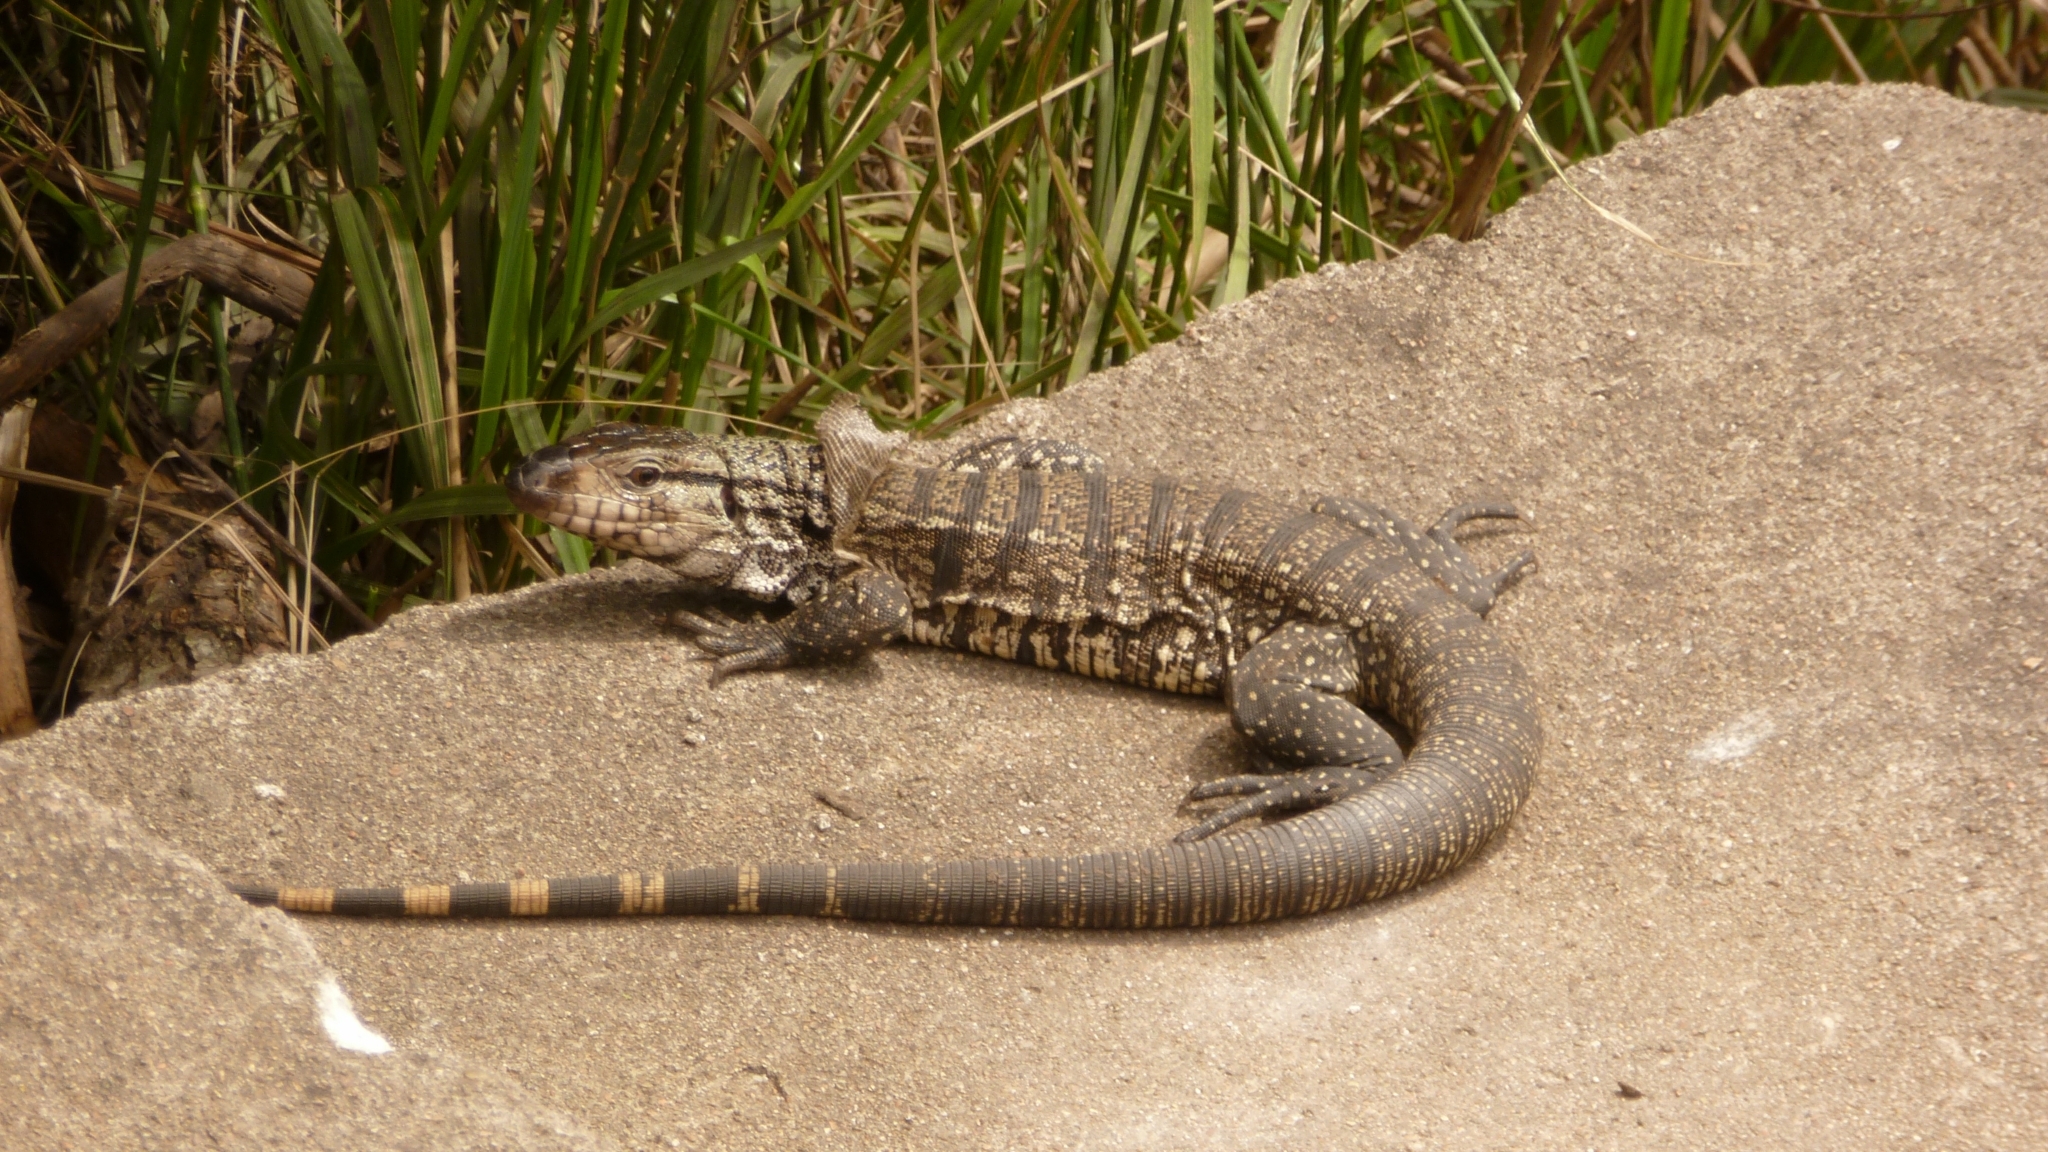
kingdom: Animalia
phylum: Chordata
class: Squamata
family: Teiidae
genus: Salvator
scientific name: Salvator merianae
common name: Argentine black and white tegu
